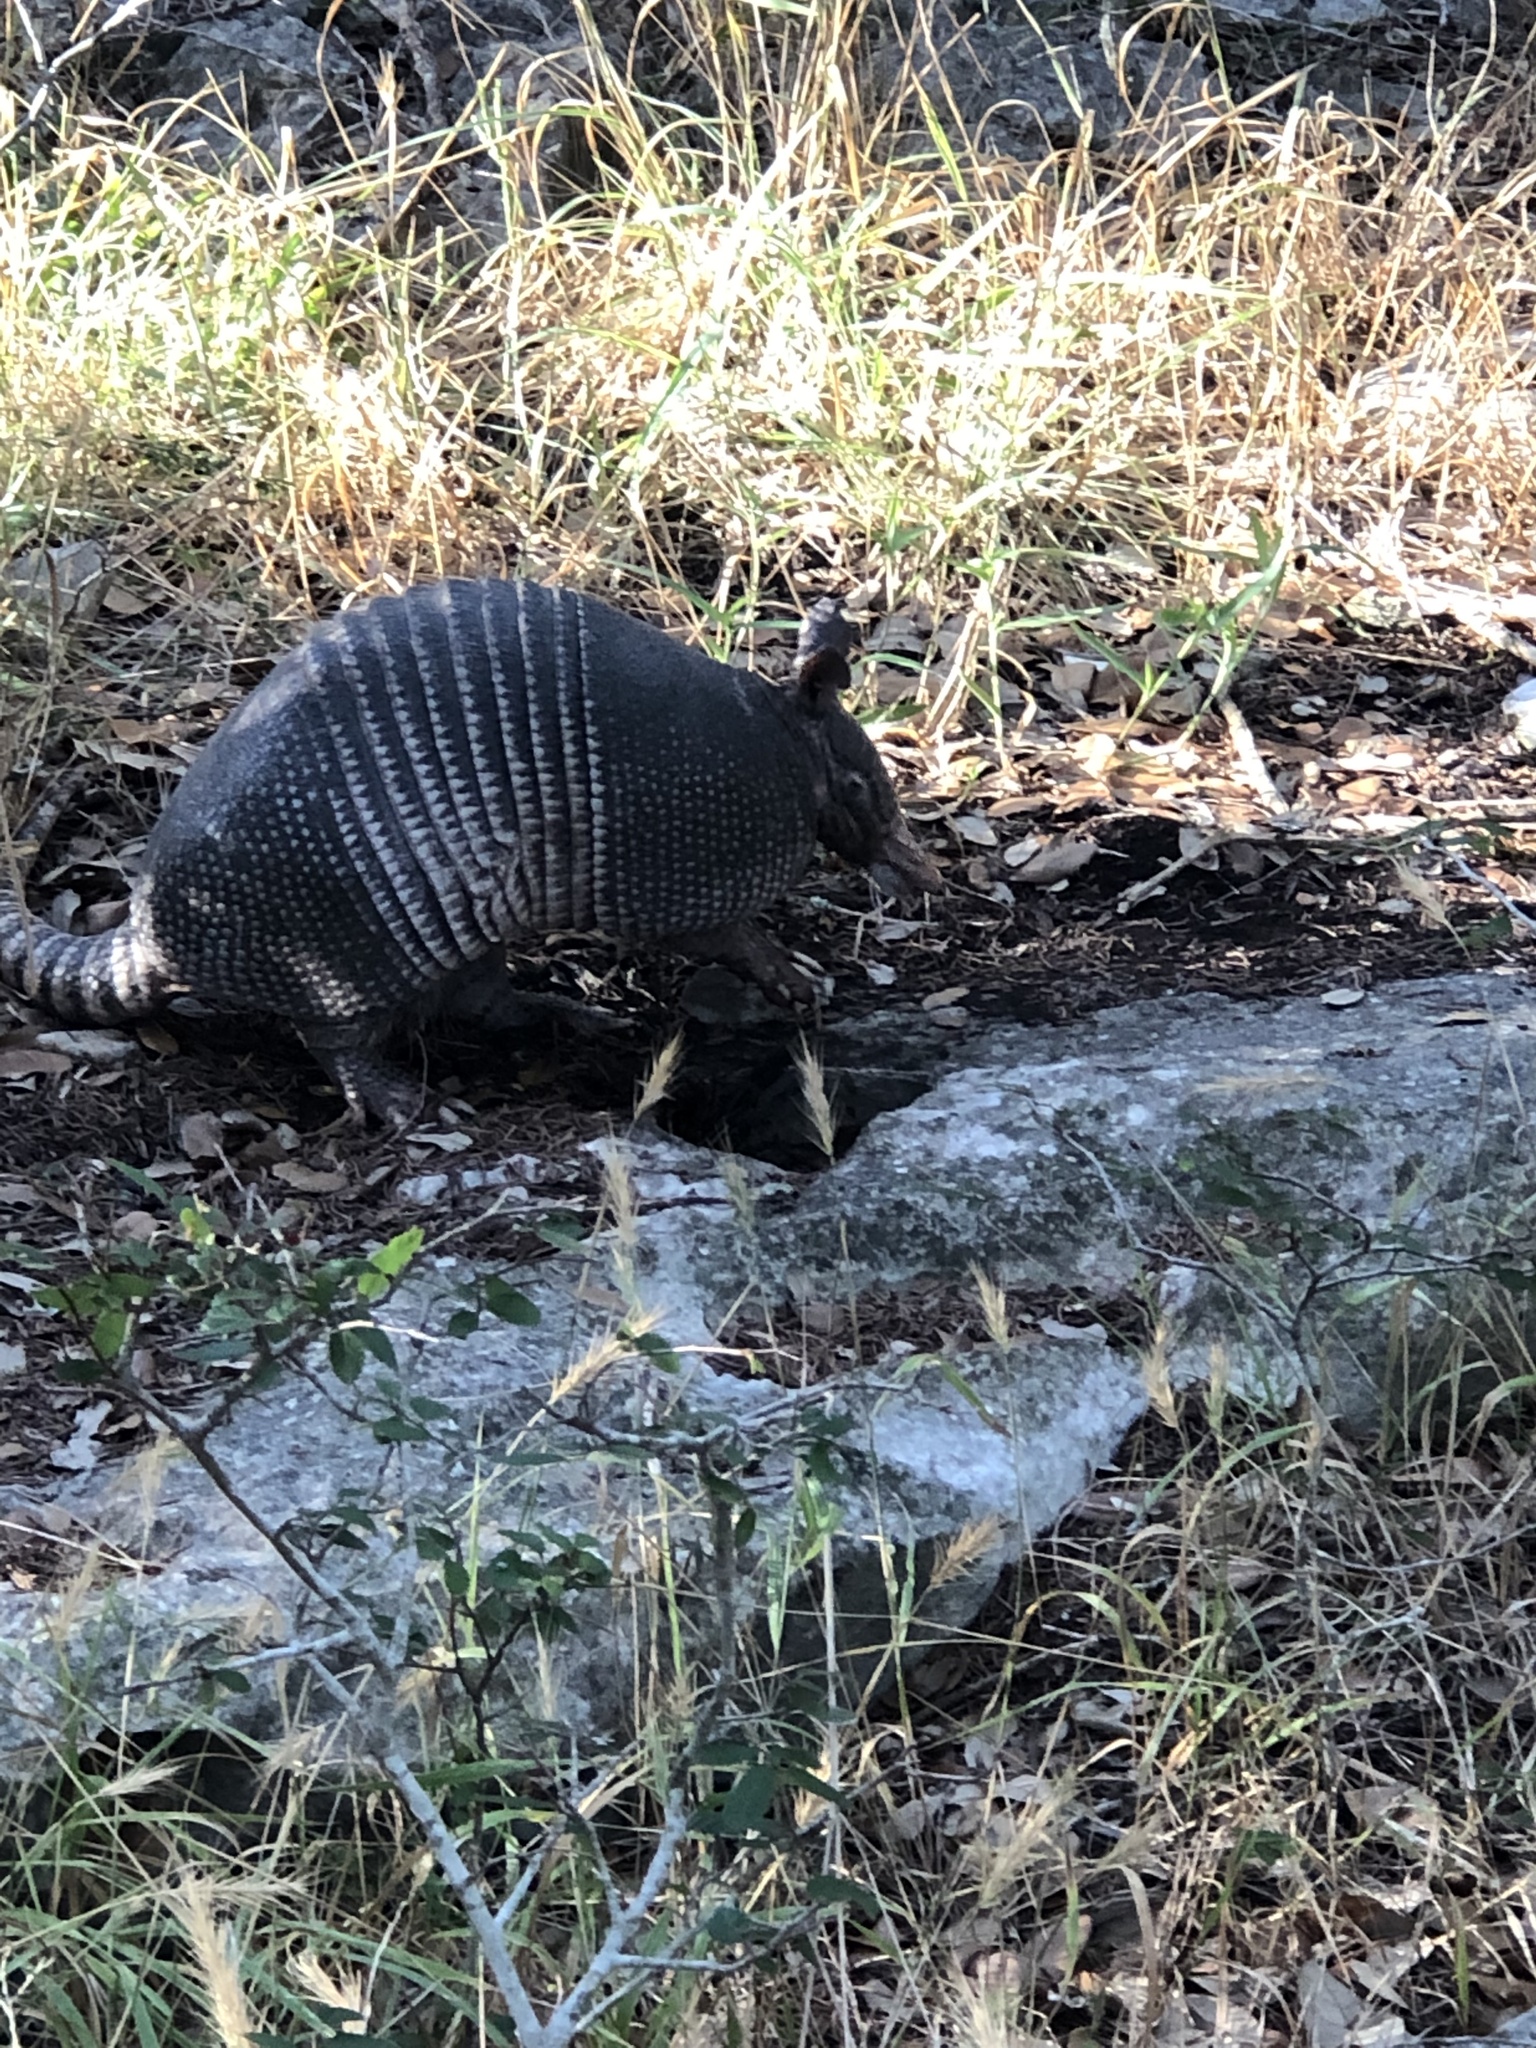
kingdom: Animalia
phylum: Chordata
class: Mammalia
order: Cingulata
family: Dasypodidae
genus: Dasypus
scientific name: Dasypus novemcinctus
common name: Nine-banded armadillo
